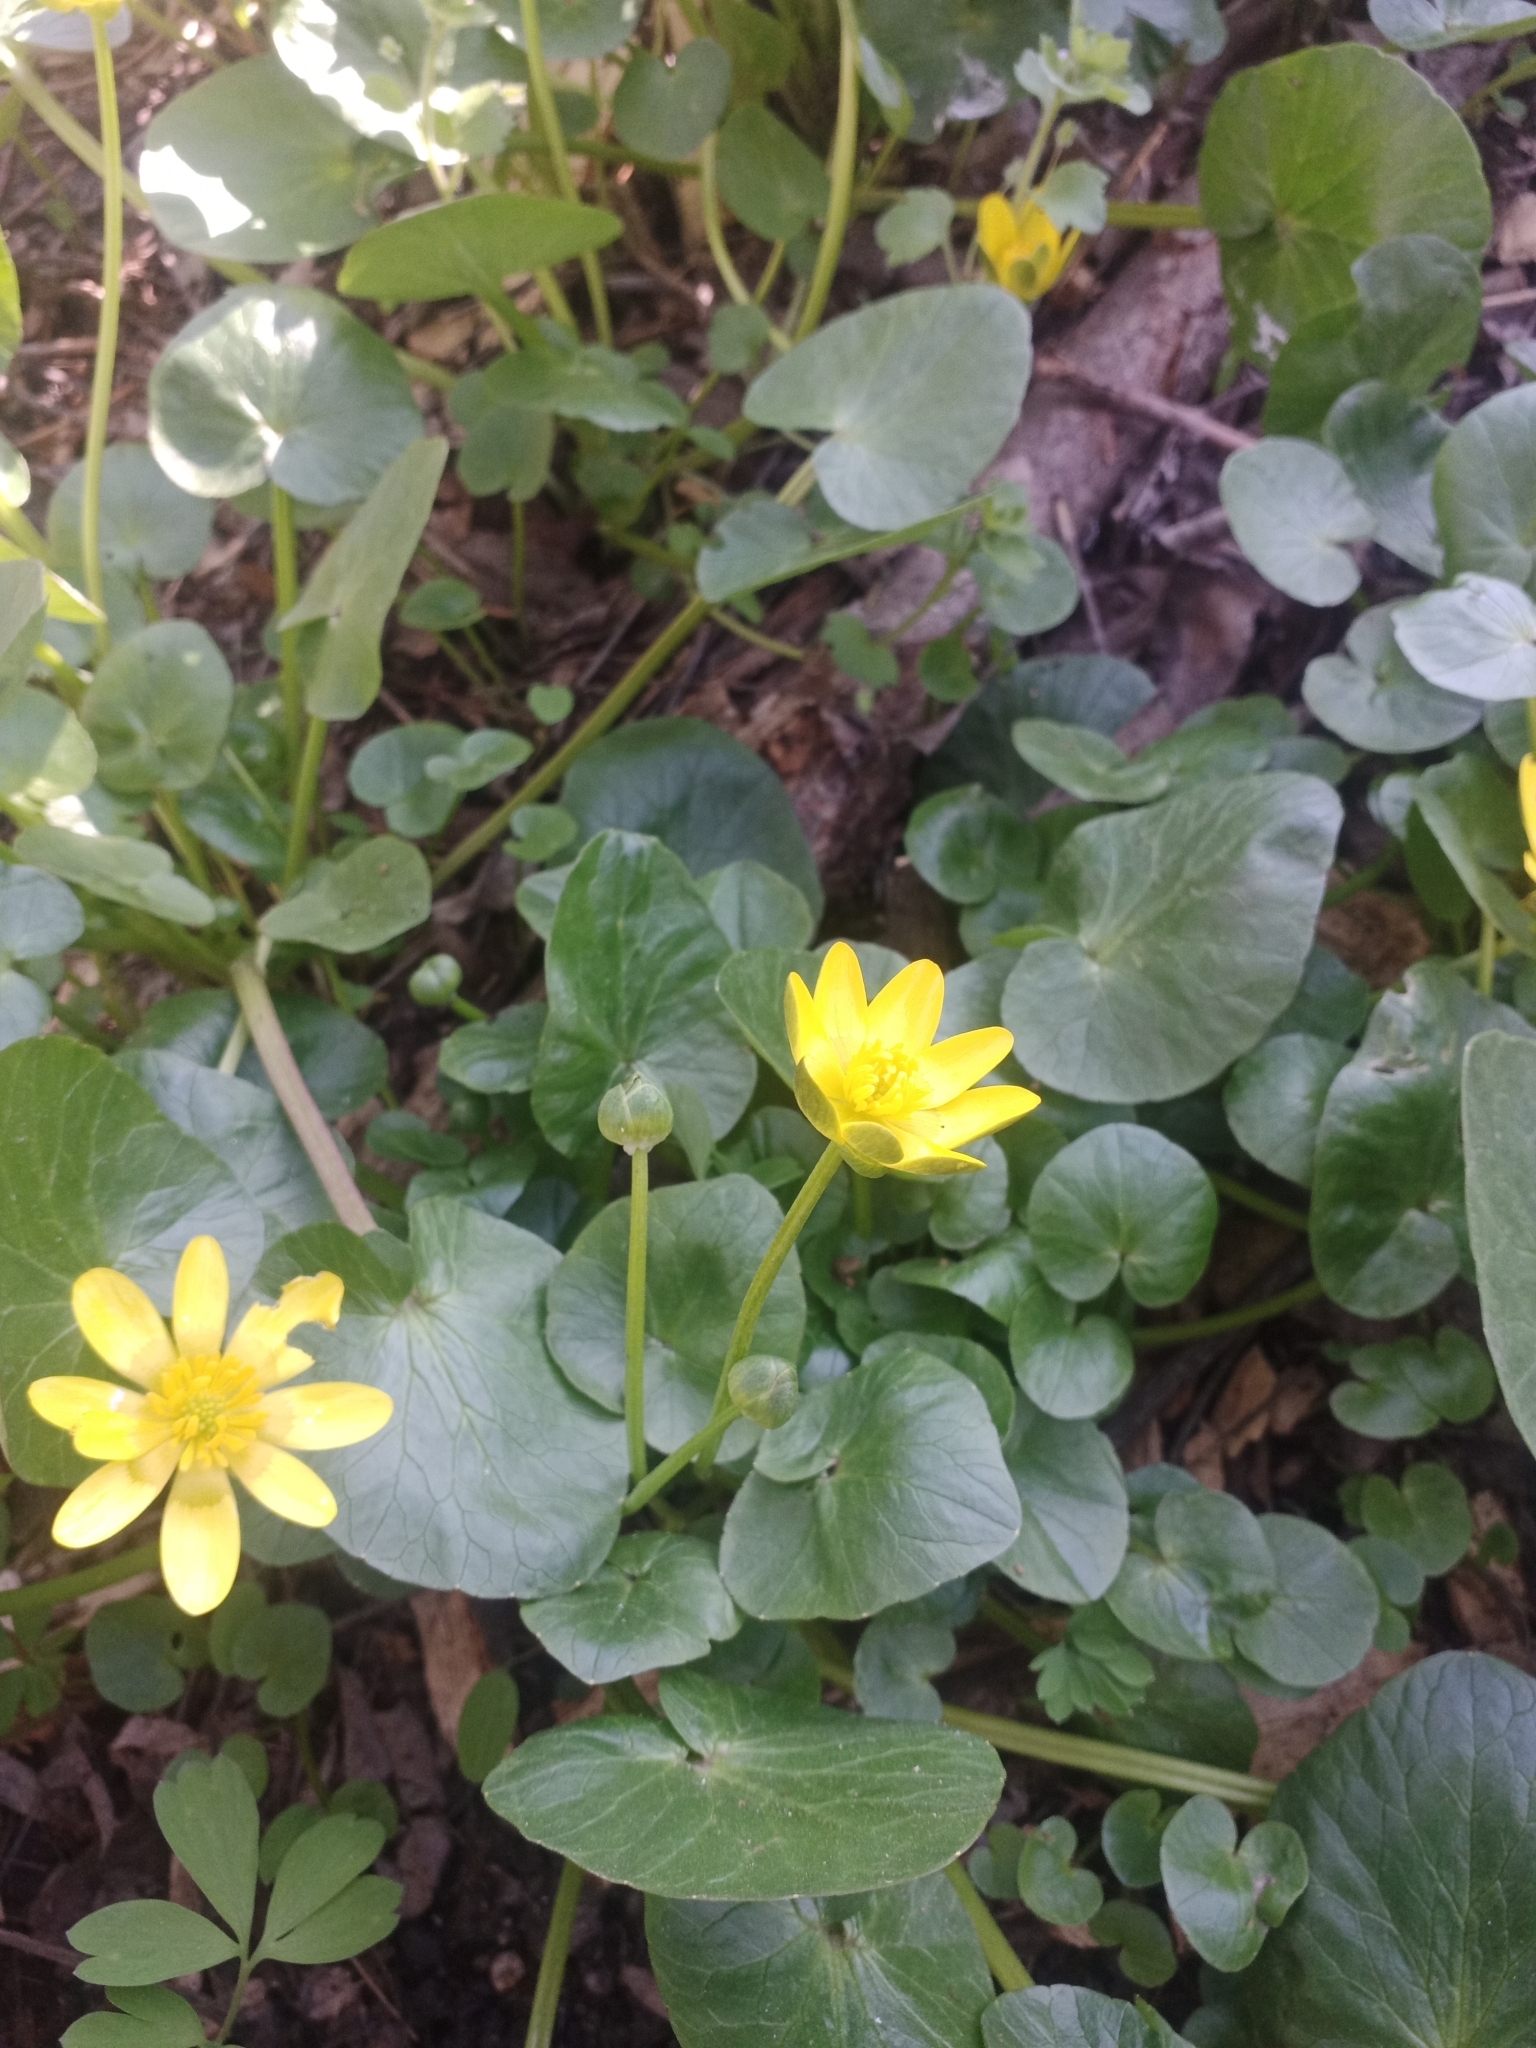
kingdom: Plantae
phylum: Tracheophyta
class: Magnoliopsida
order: Ranunculales
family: Ranunculaceae
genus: Ficaria
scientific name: Ficaria verna
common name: Lesser celandine
